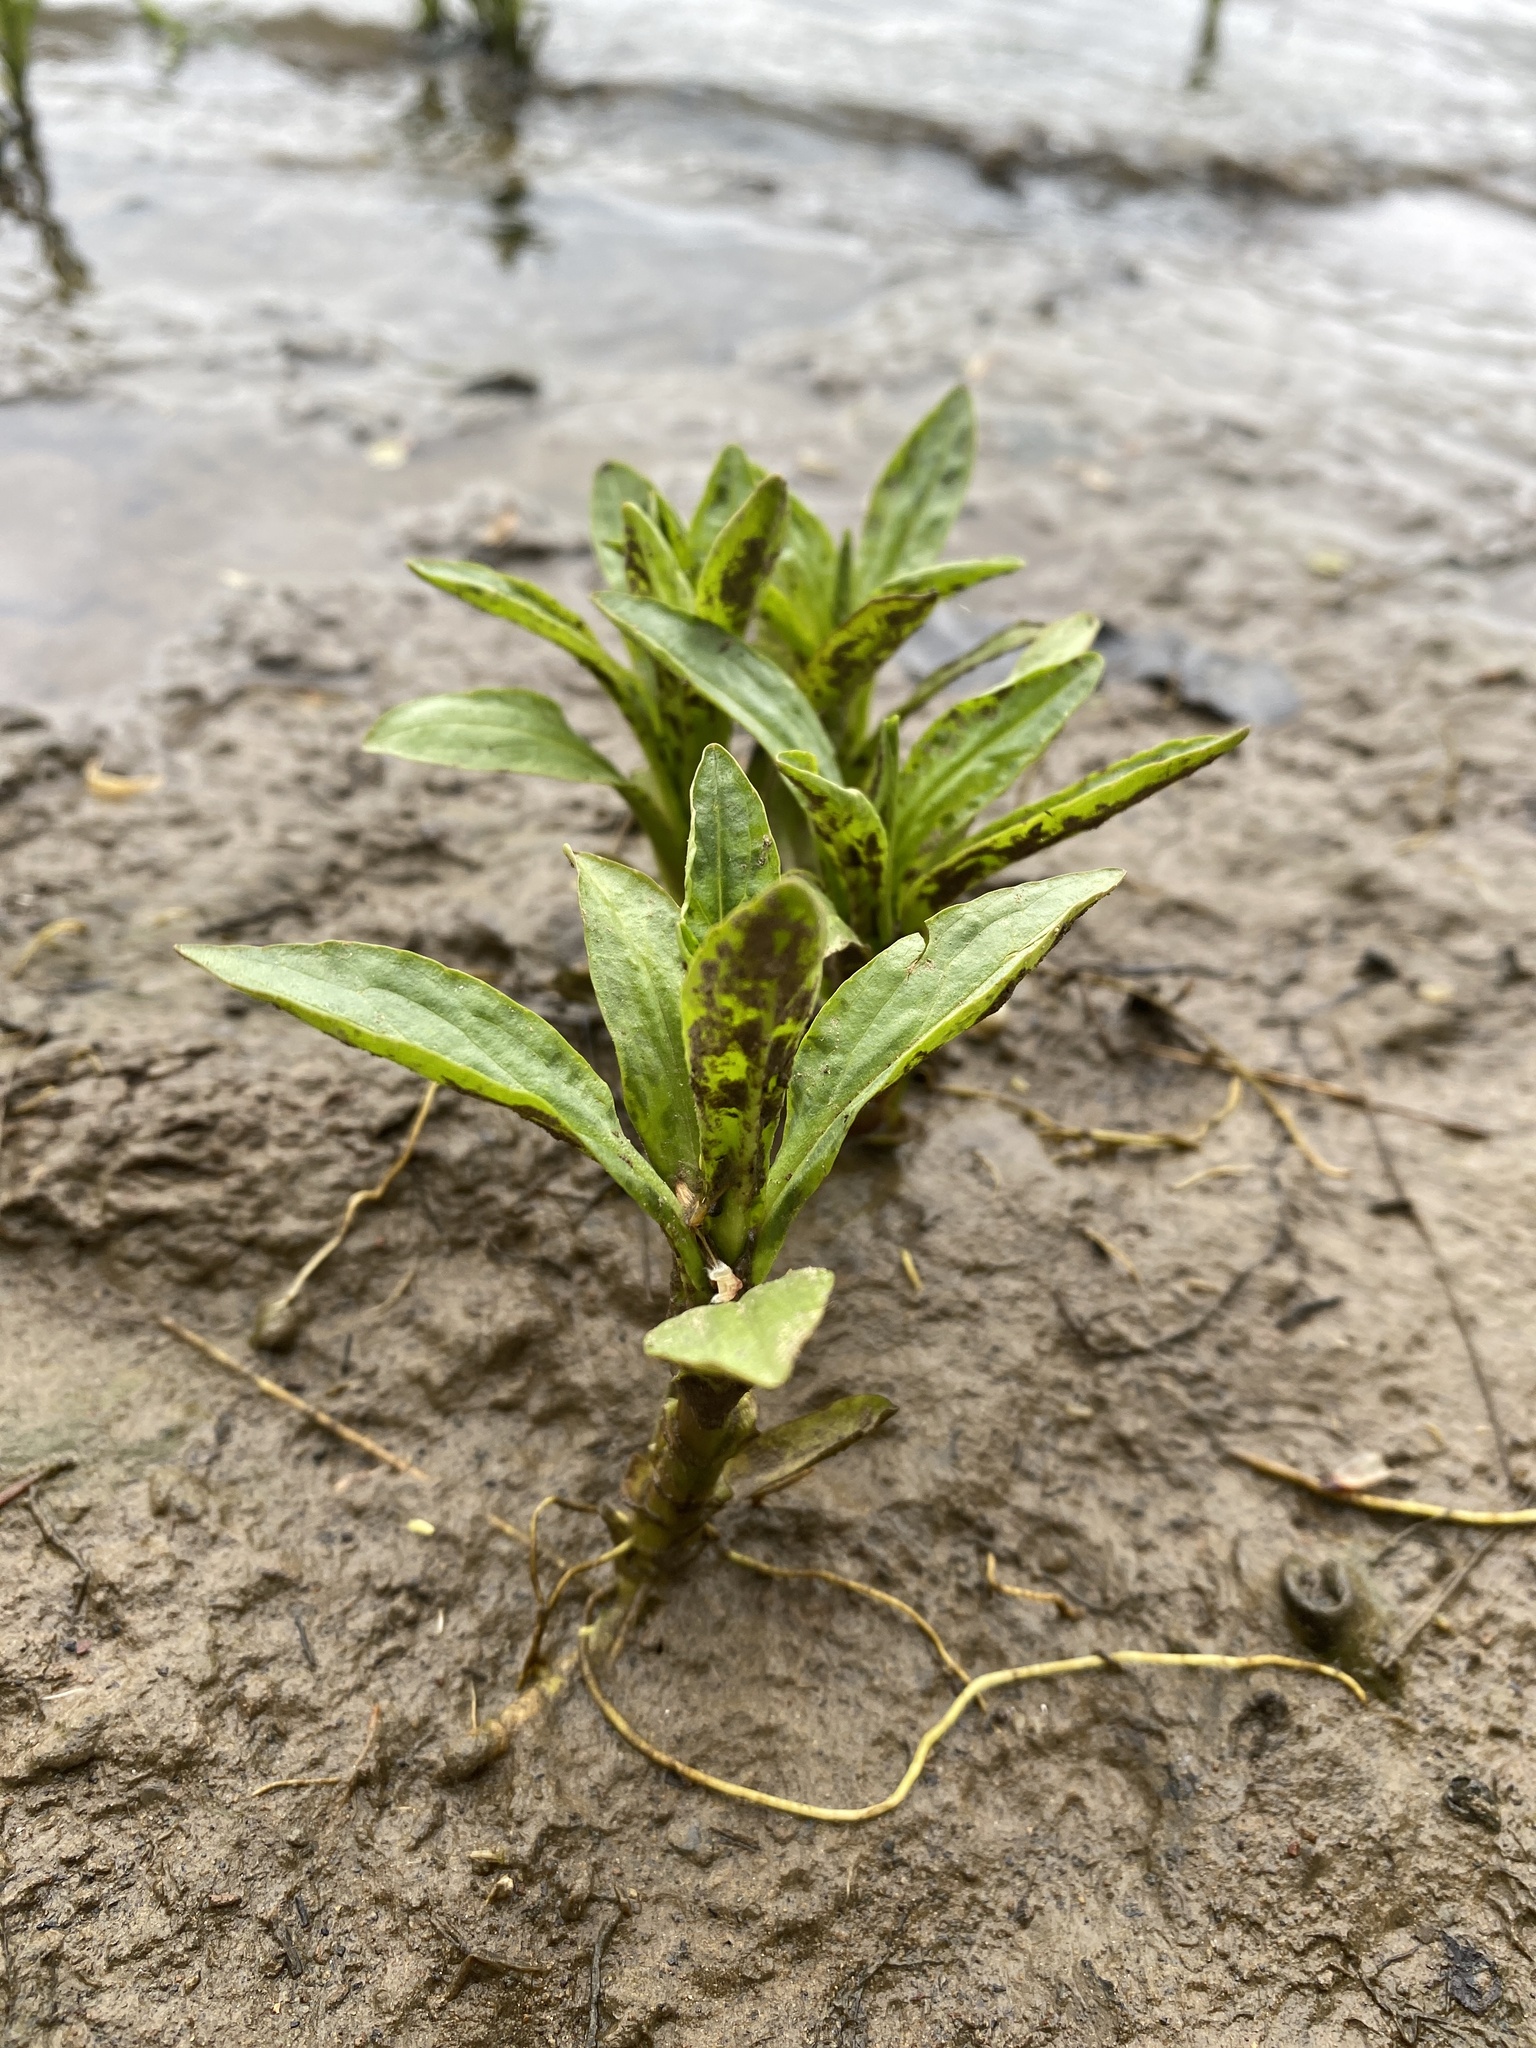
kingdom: Plantae
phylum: Tracheophyta
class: Magnoliopsida
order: Lamiales
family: Acanthaceae
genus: Dianthera
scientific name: Dianthera americana
